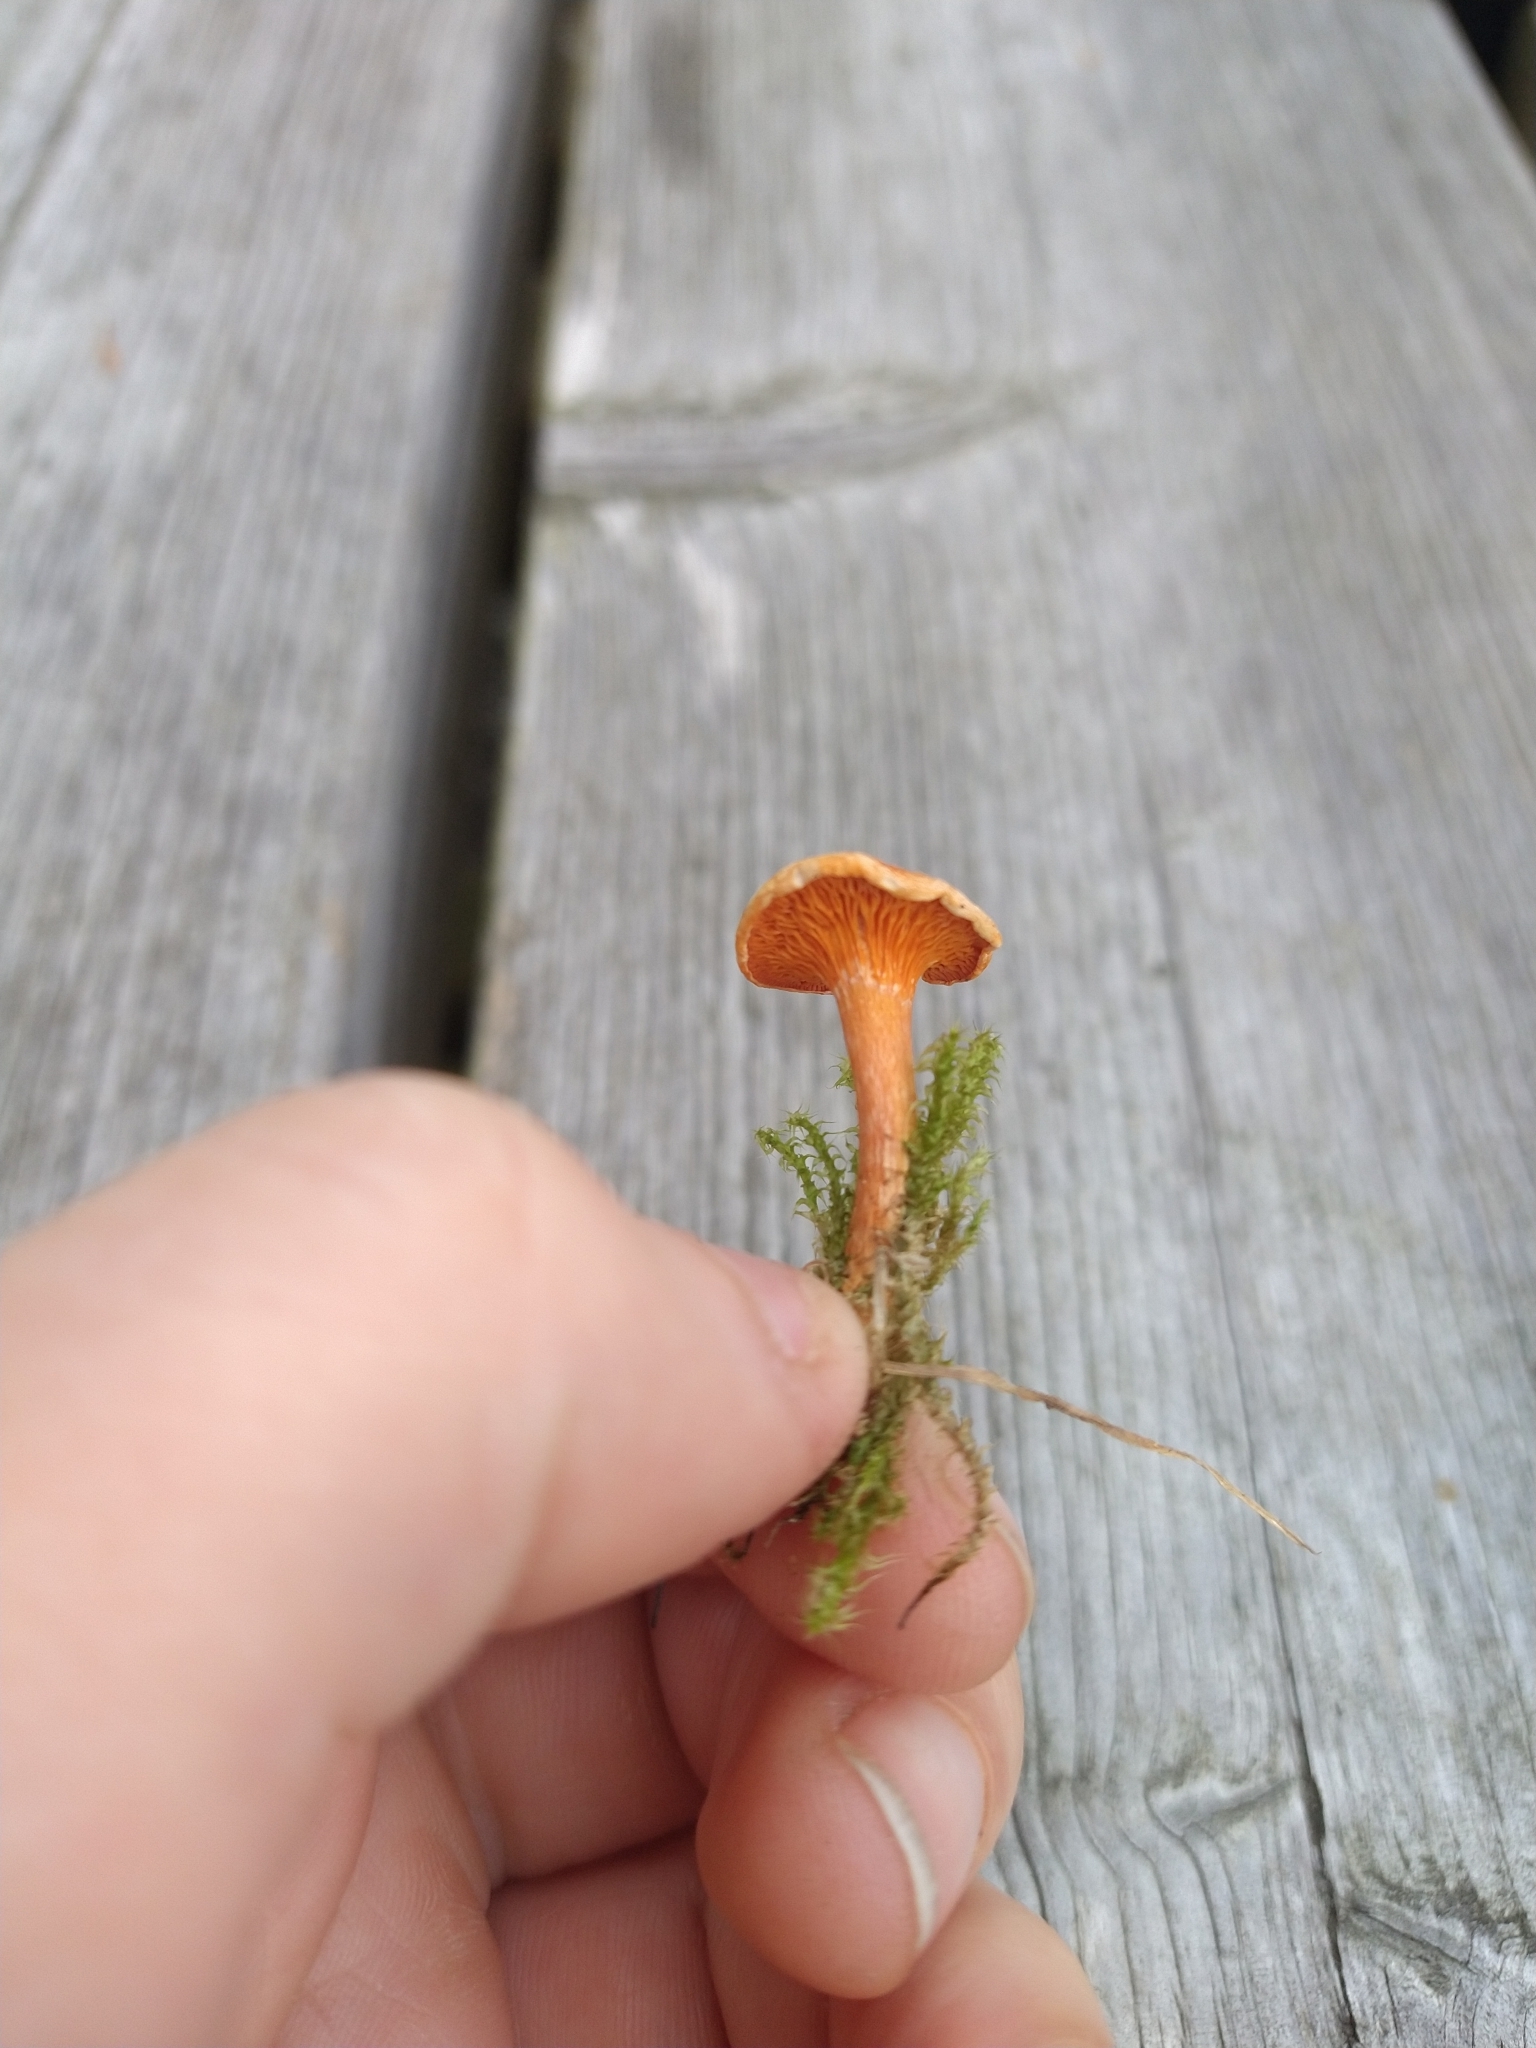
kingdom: Fungi
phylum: Basidiomycota
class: Agaricomycetes
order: Boletales
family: Hygrophoropsidaceae
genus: Hygrophoropsis
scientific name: Hygrophoropsis aurantiaca
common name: False chanterelle
